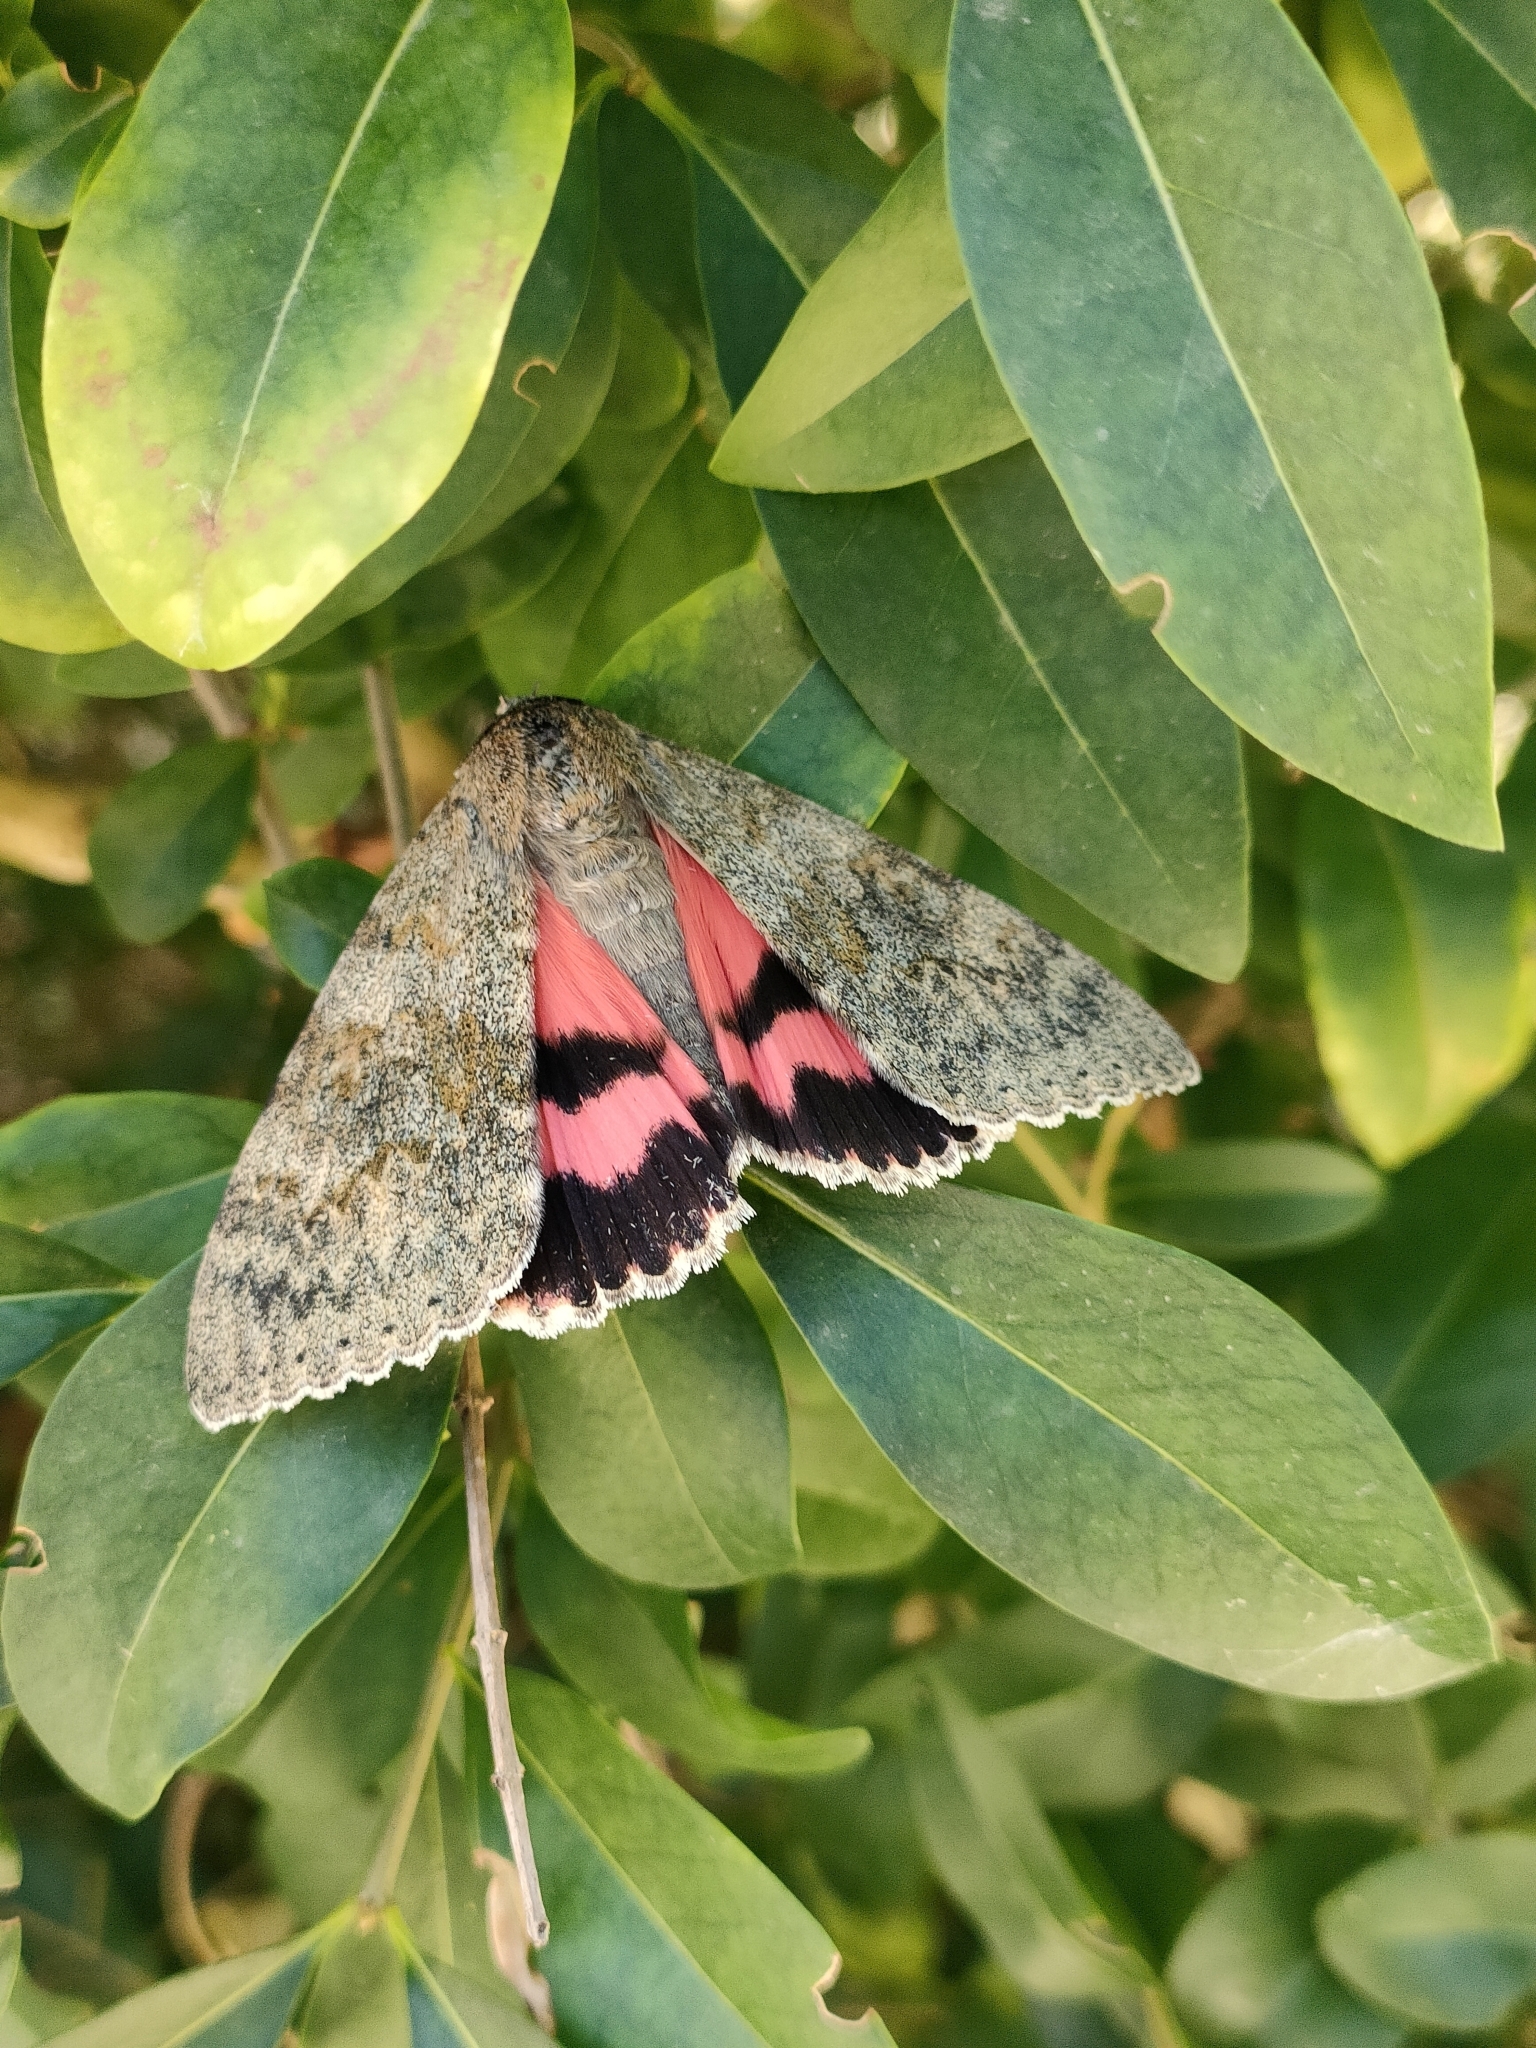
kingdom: Animalia
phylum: Arthropoda
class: Insecta
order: Lepidoptera
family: Erebidae
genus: Catocala
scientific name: Catocala elocata
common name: French red underwing
